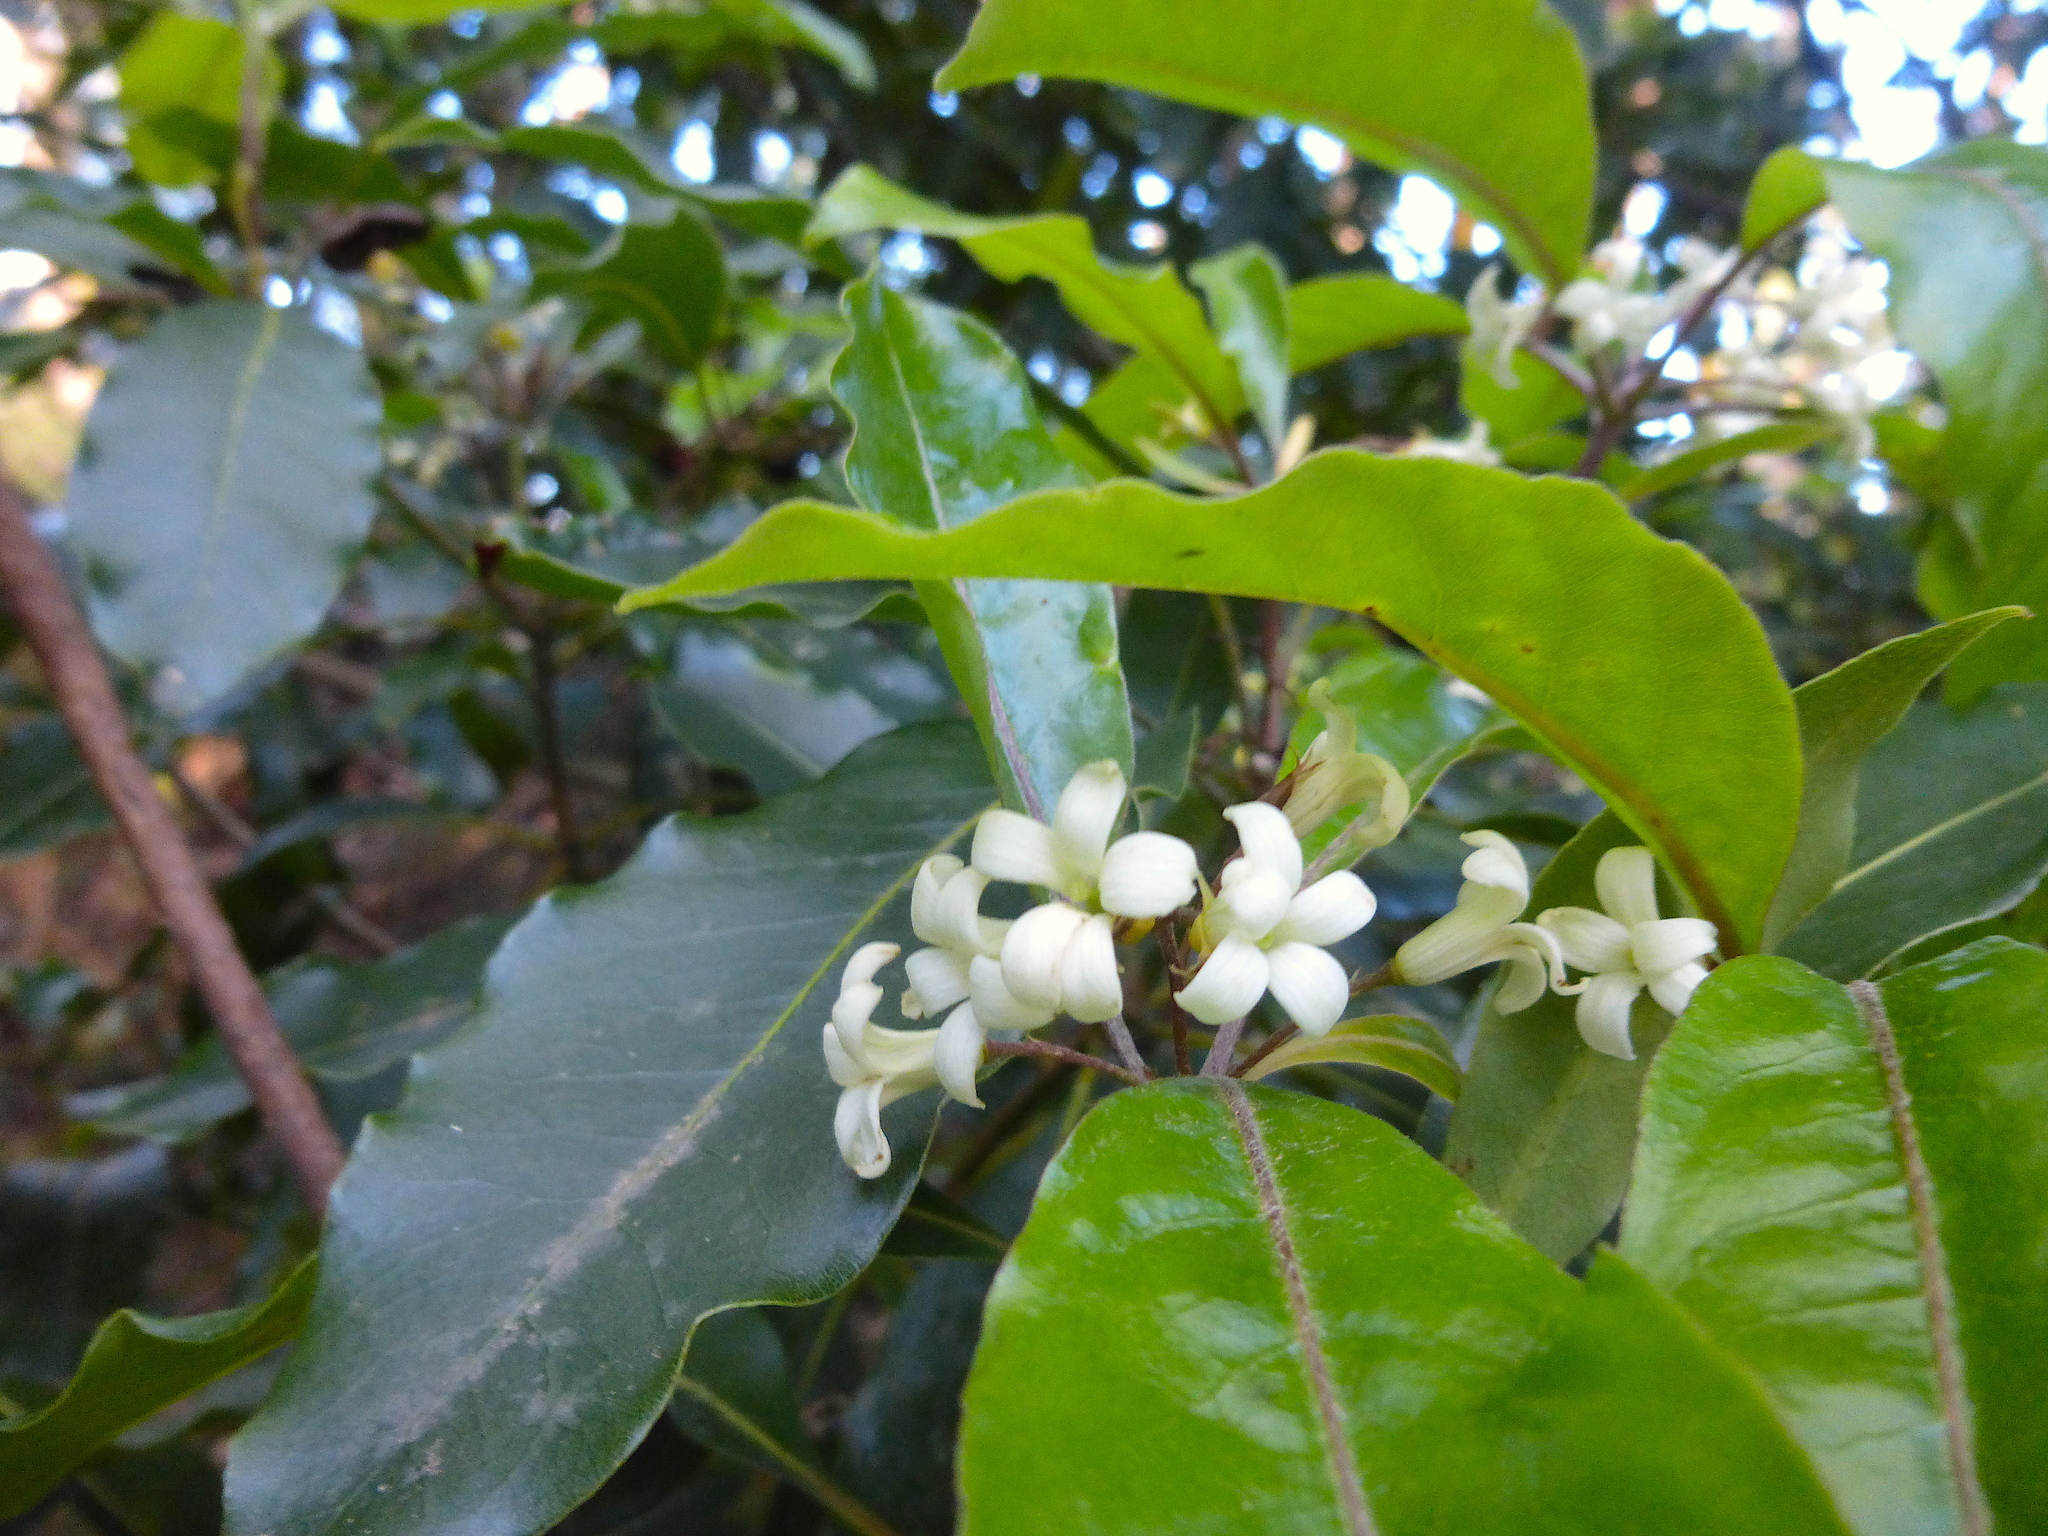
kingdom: Plantae
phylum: Tracheophyta
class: Magnoliopsida
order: Apiales
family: Pittosporaceae
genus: Pittosporum
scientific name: Pittosporum undulatum
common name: Australian cheesewood
